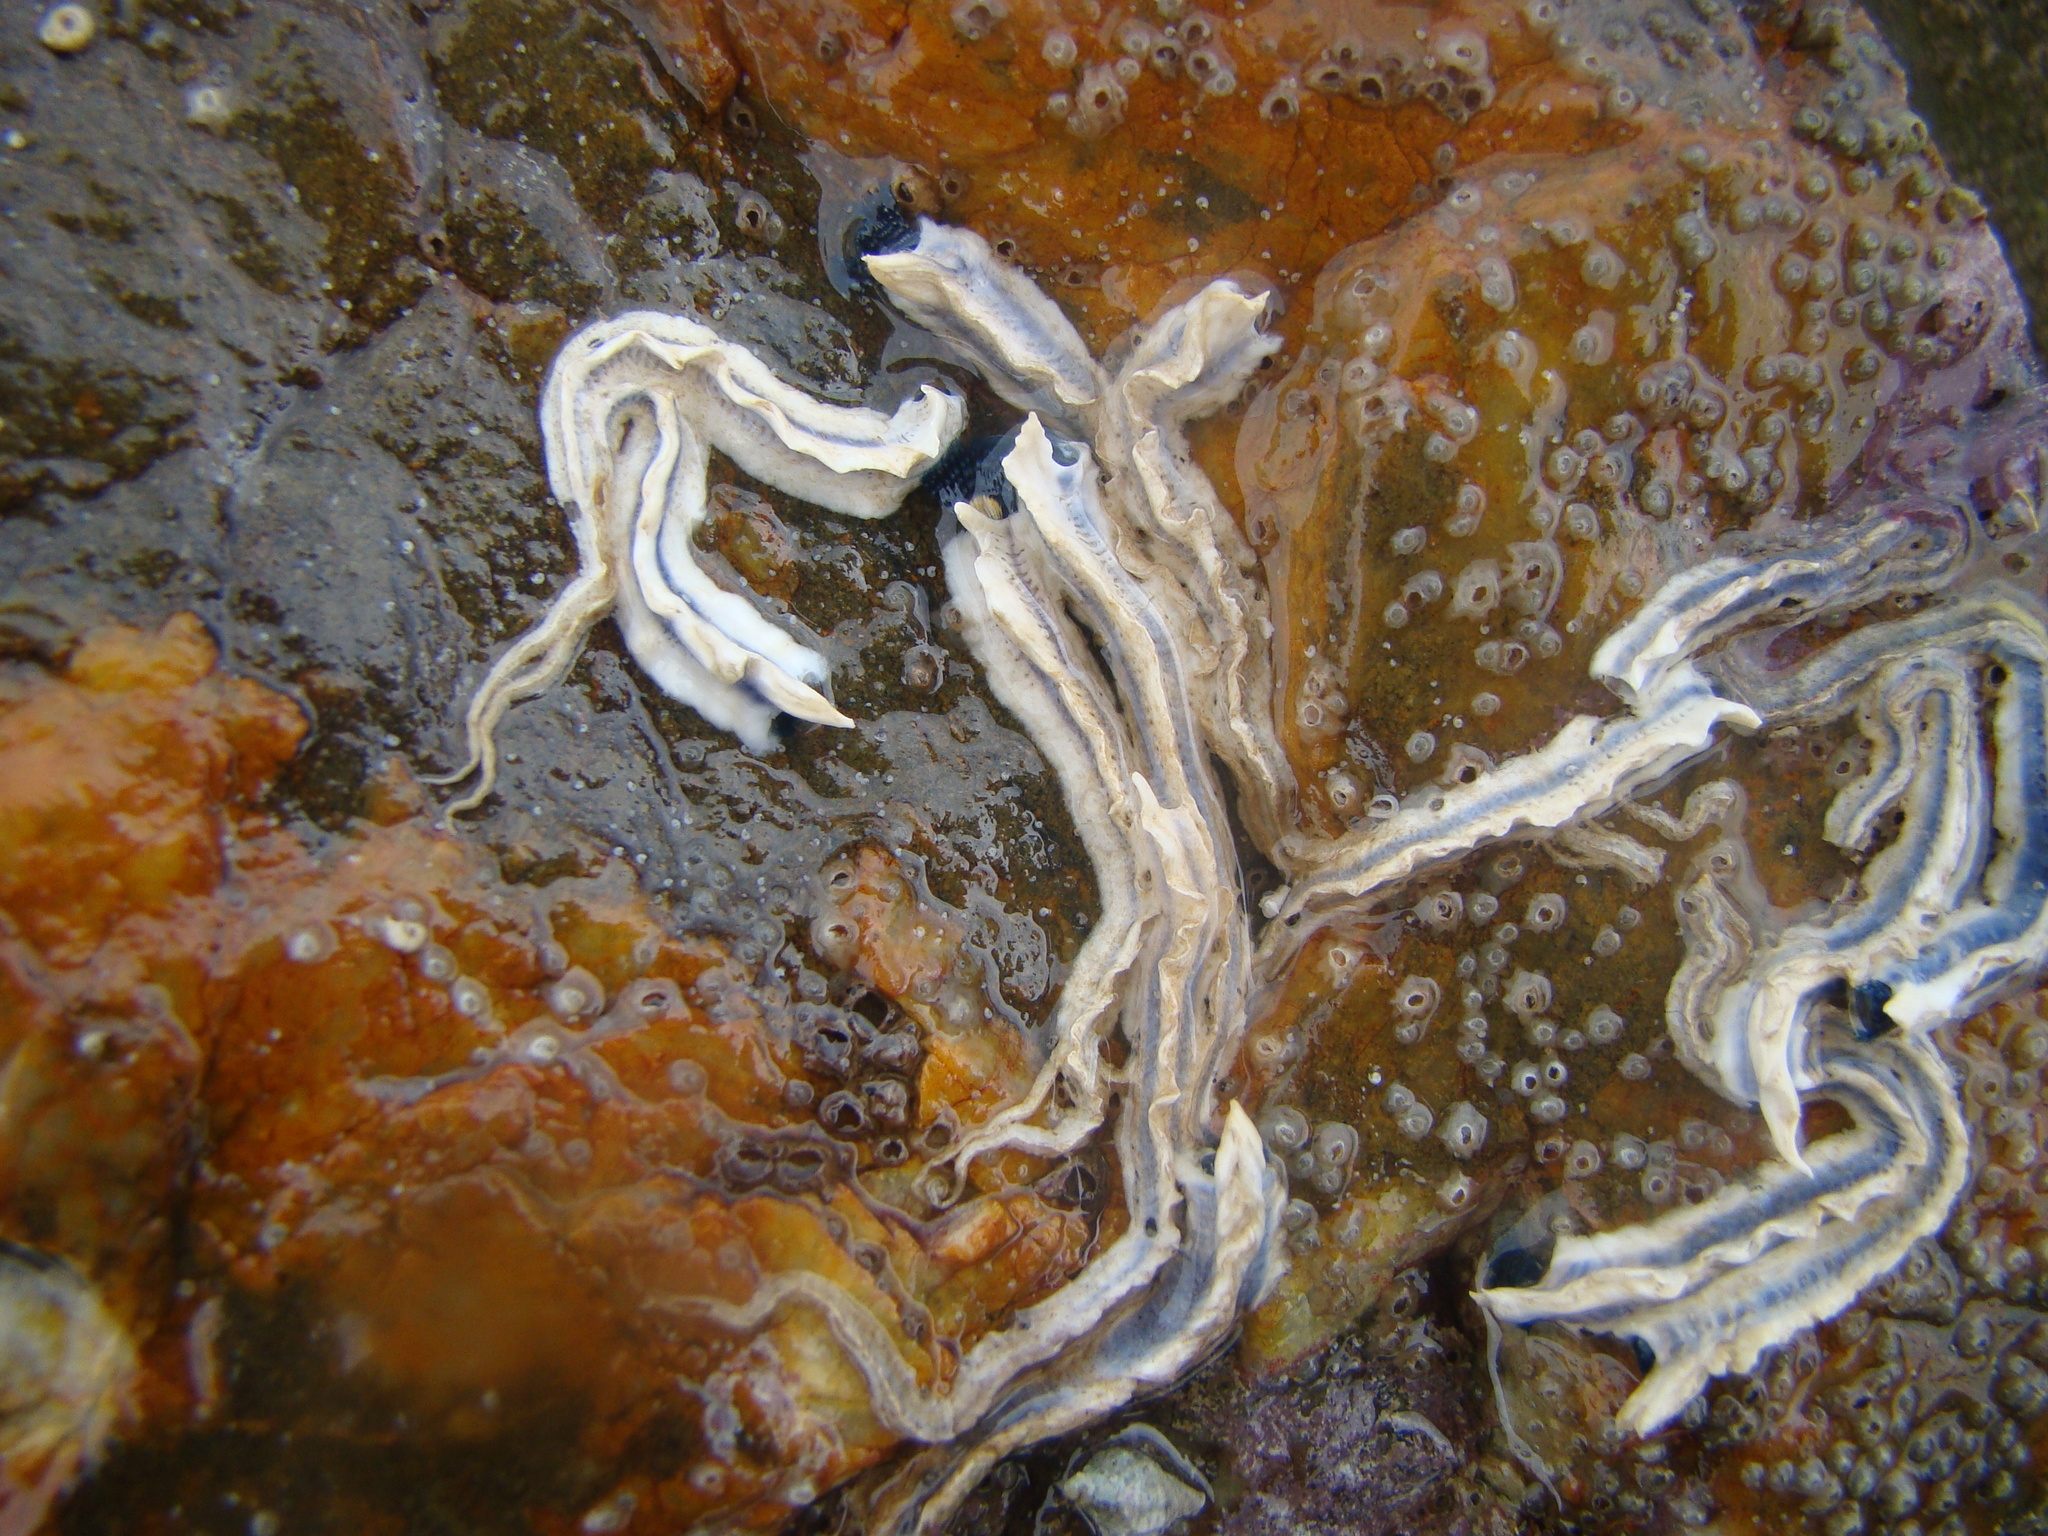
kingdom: Animalia
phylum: Annelida
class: Polychaeta
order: Sabellida
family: Serpulidae
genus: Spirobranchus
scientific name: Spirobranchus cariniferus
